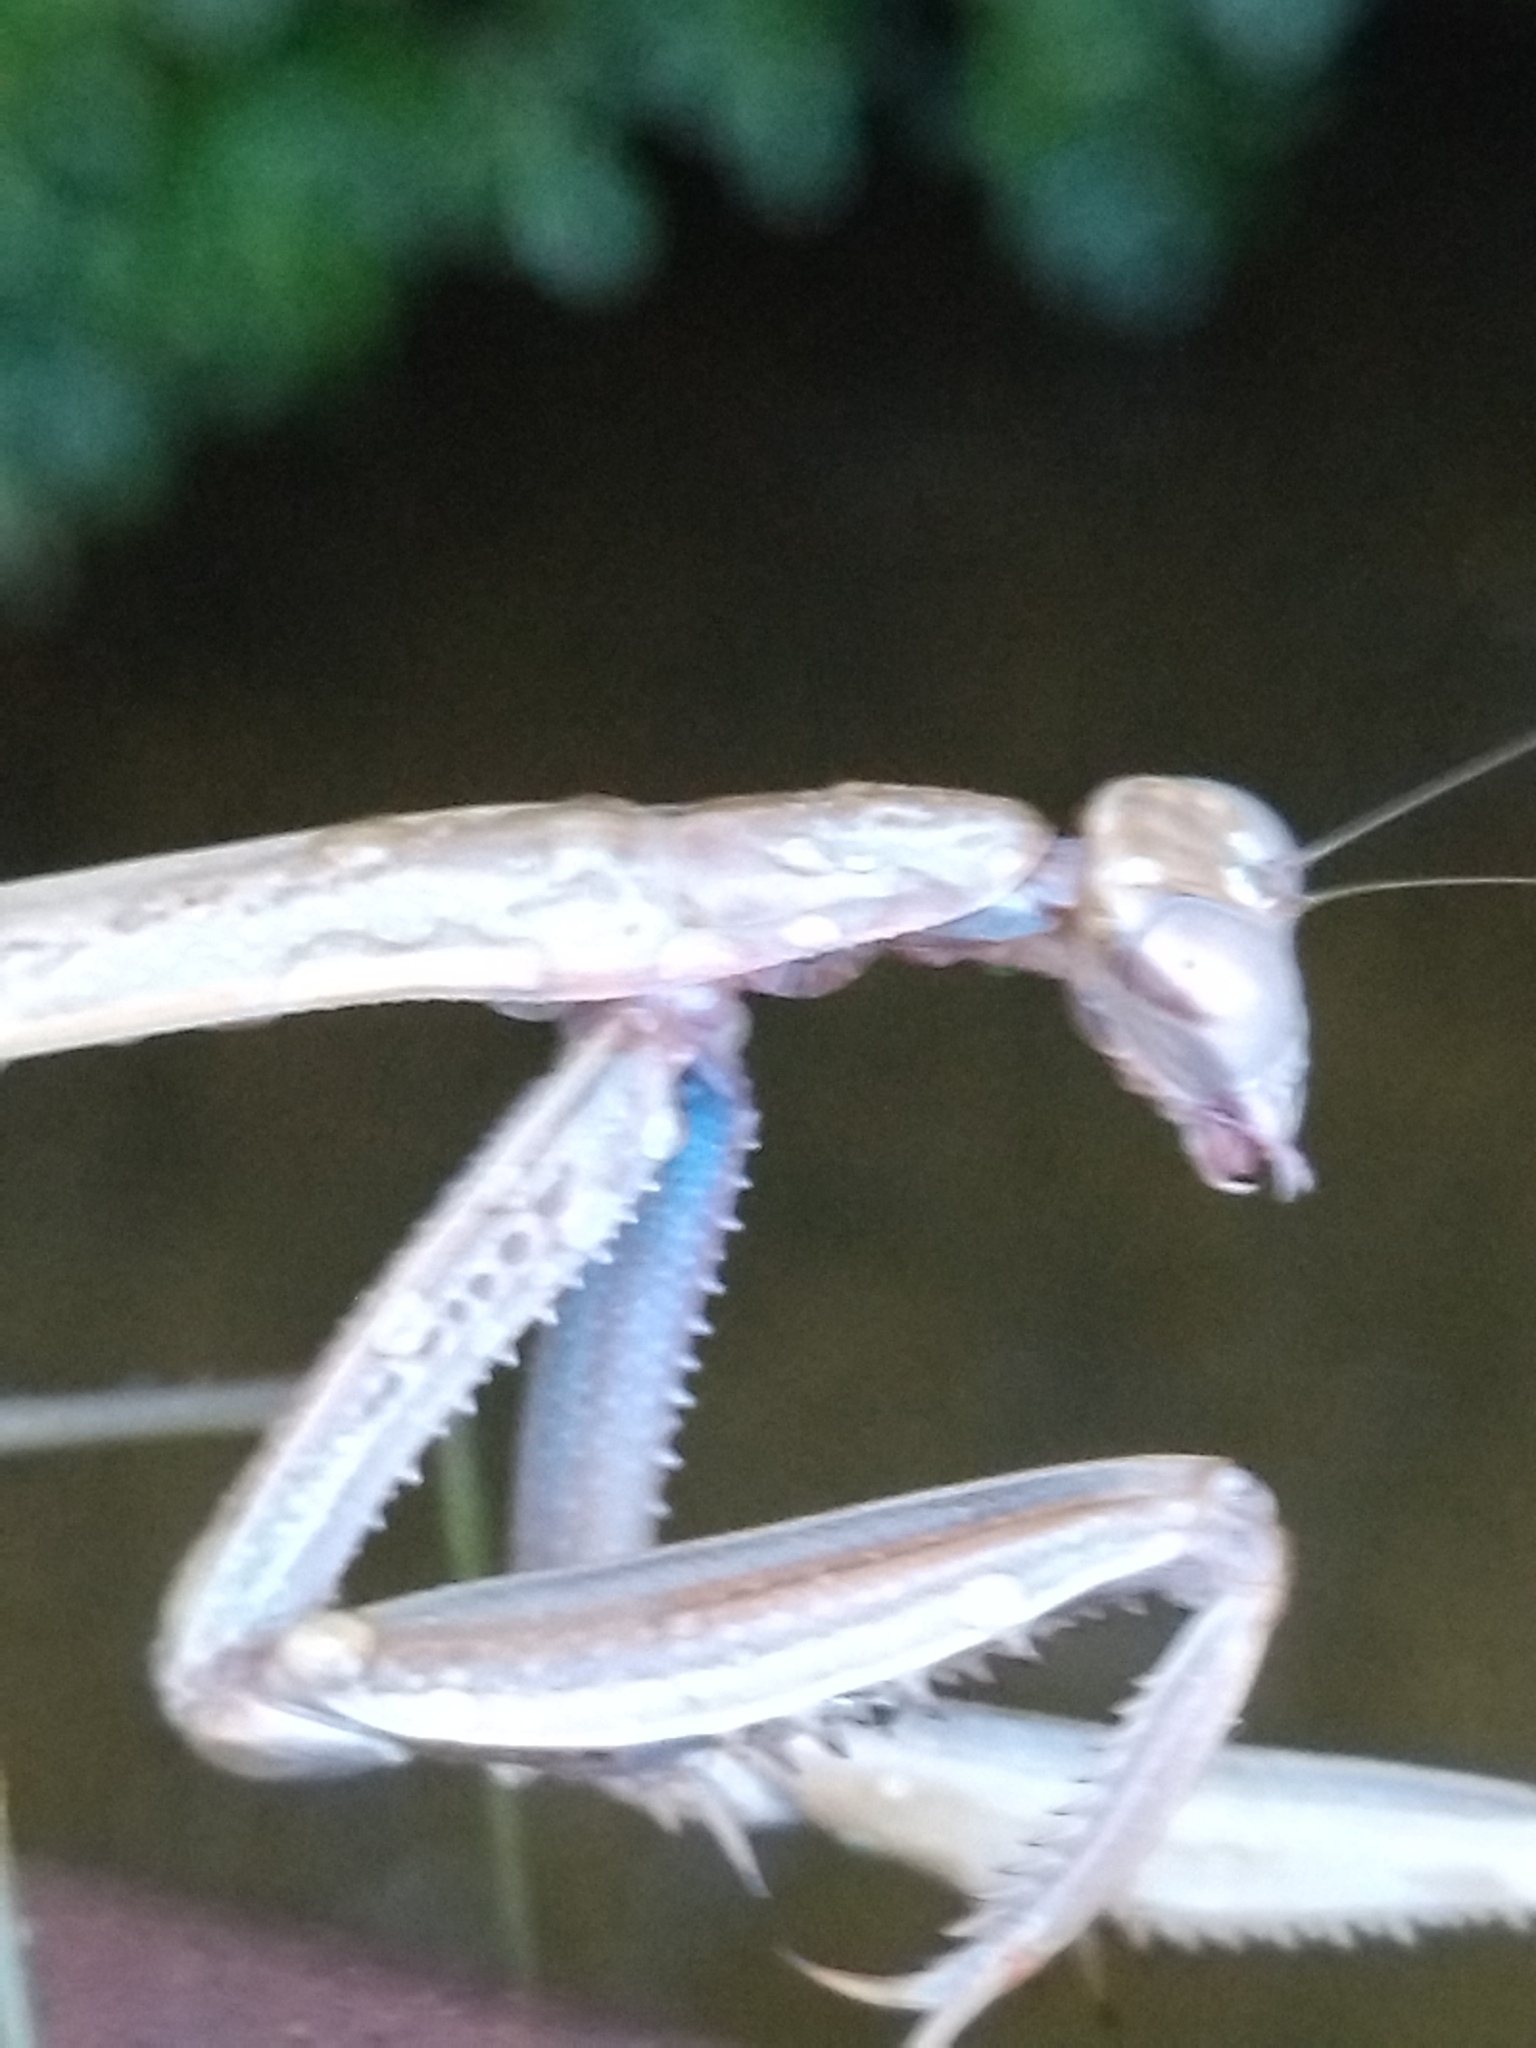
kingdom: Animalia
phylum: Arthropoda
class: Insecta
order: Mantodea
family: Mantidae
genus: Tenodera
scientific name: Tenodera sinensis
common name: Chinese mantis
